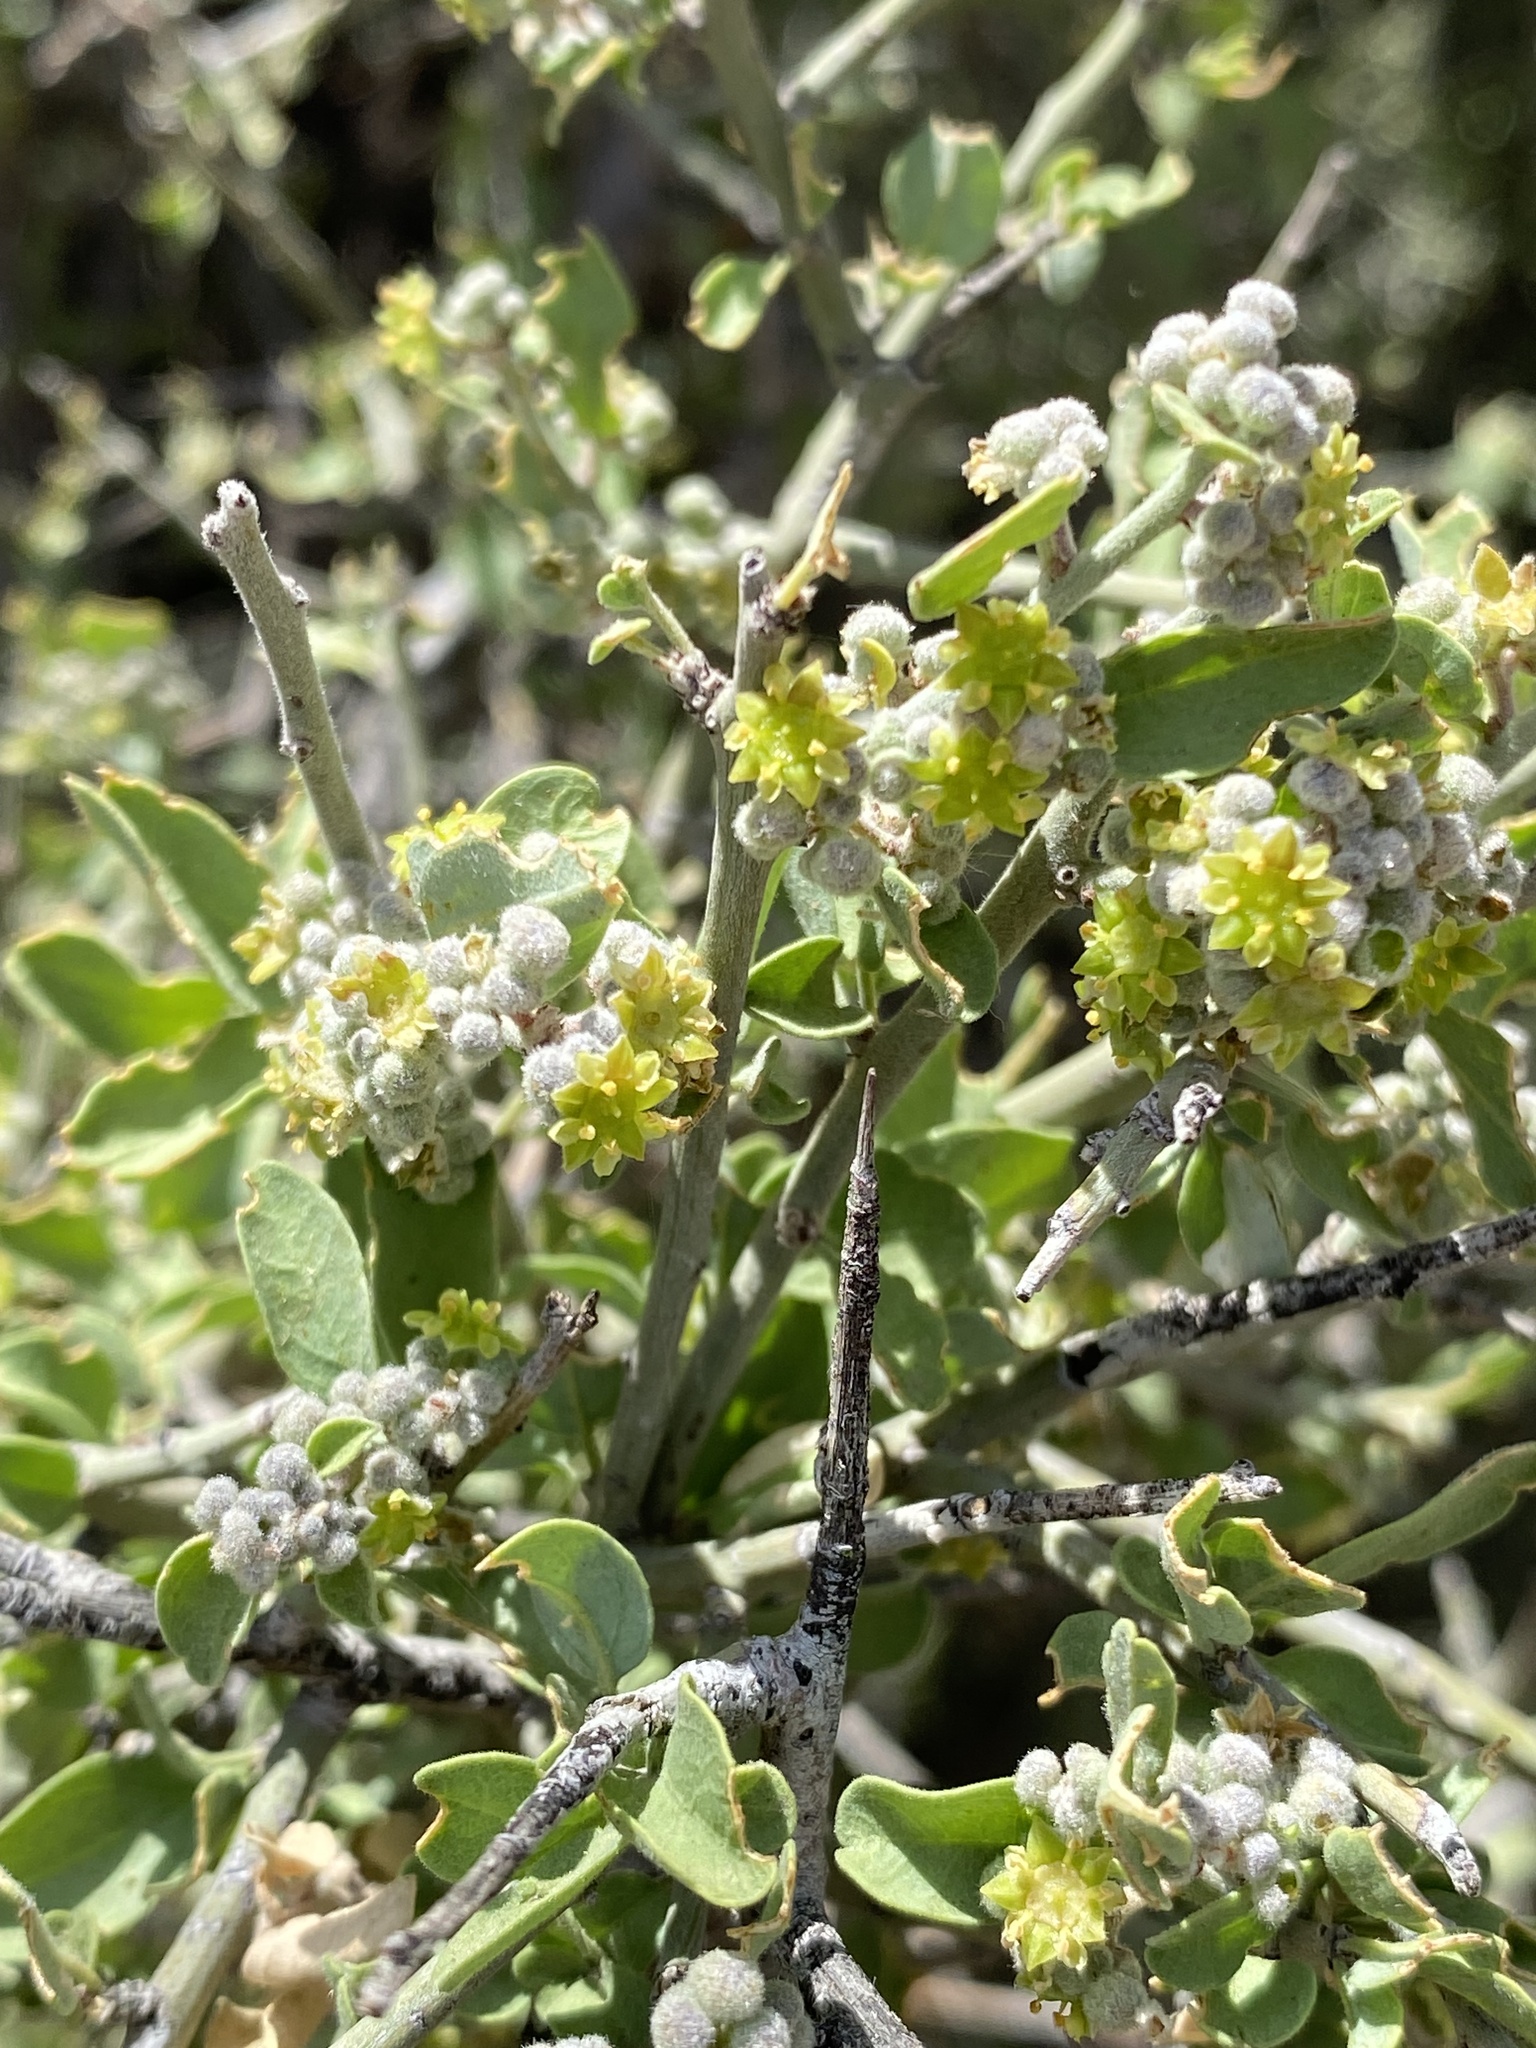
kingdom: Plantae
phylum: Tracheophyta
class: Magnoliopsida
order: Rosales
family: Rhamnaceae
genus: Sarcomphalus
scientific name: Sarcomphalus obtusifolius
